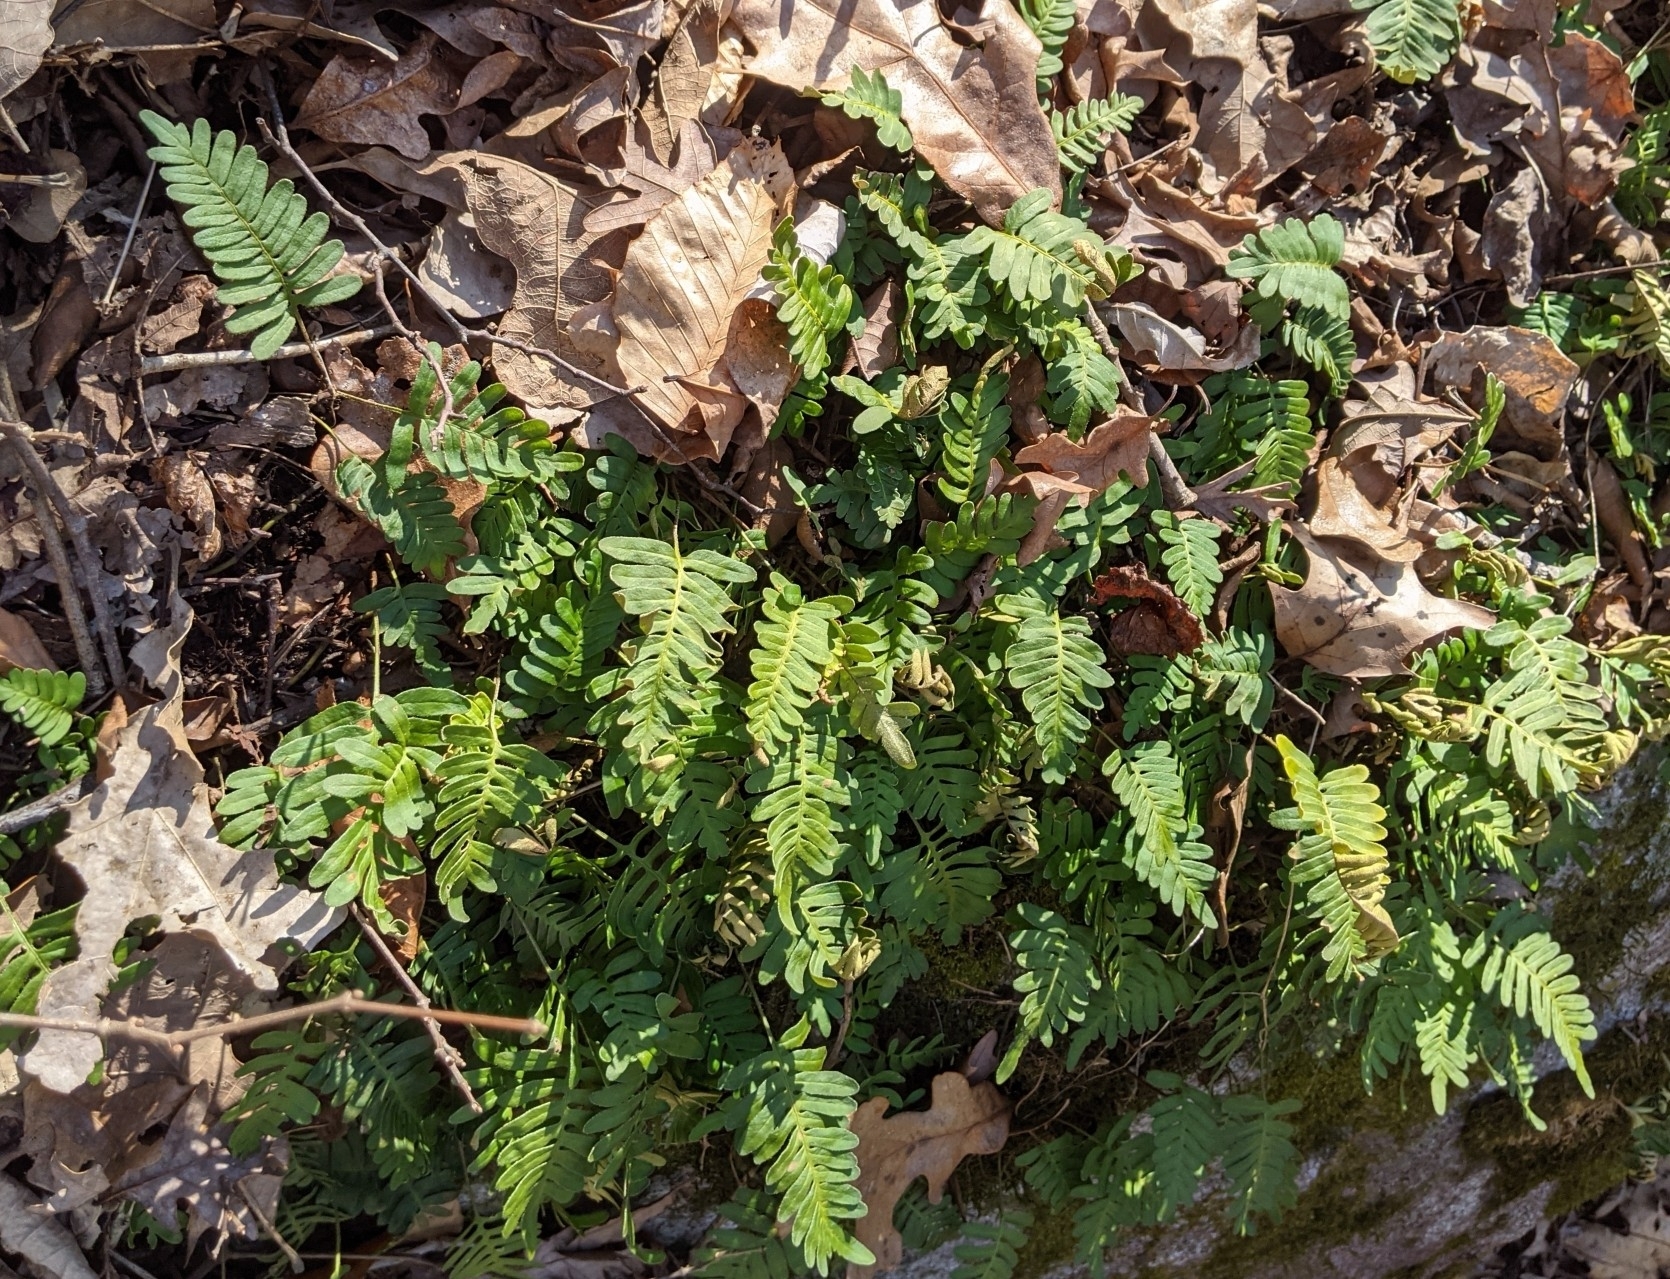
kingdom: Plantae
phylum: Tracheophyta
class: Polypodiopsida
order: Polypodiales
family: Polypodiaceae
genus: Pleopeltis
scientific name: Pleopeltis michauxiana
